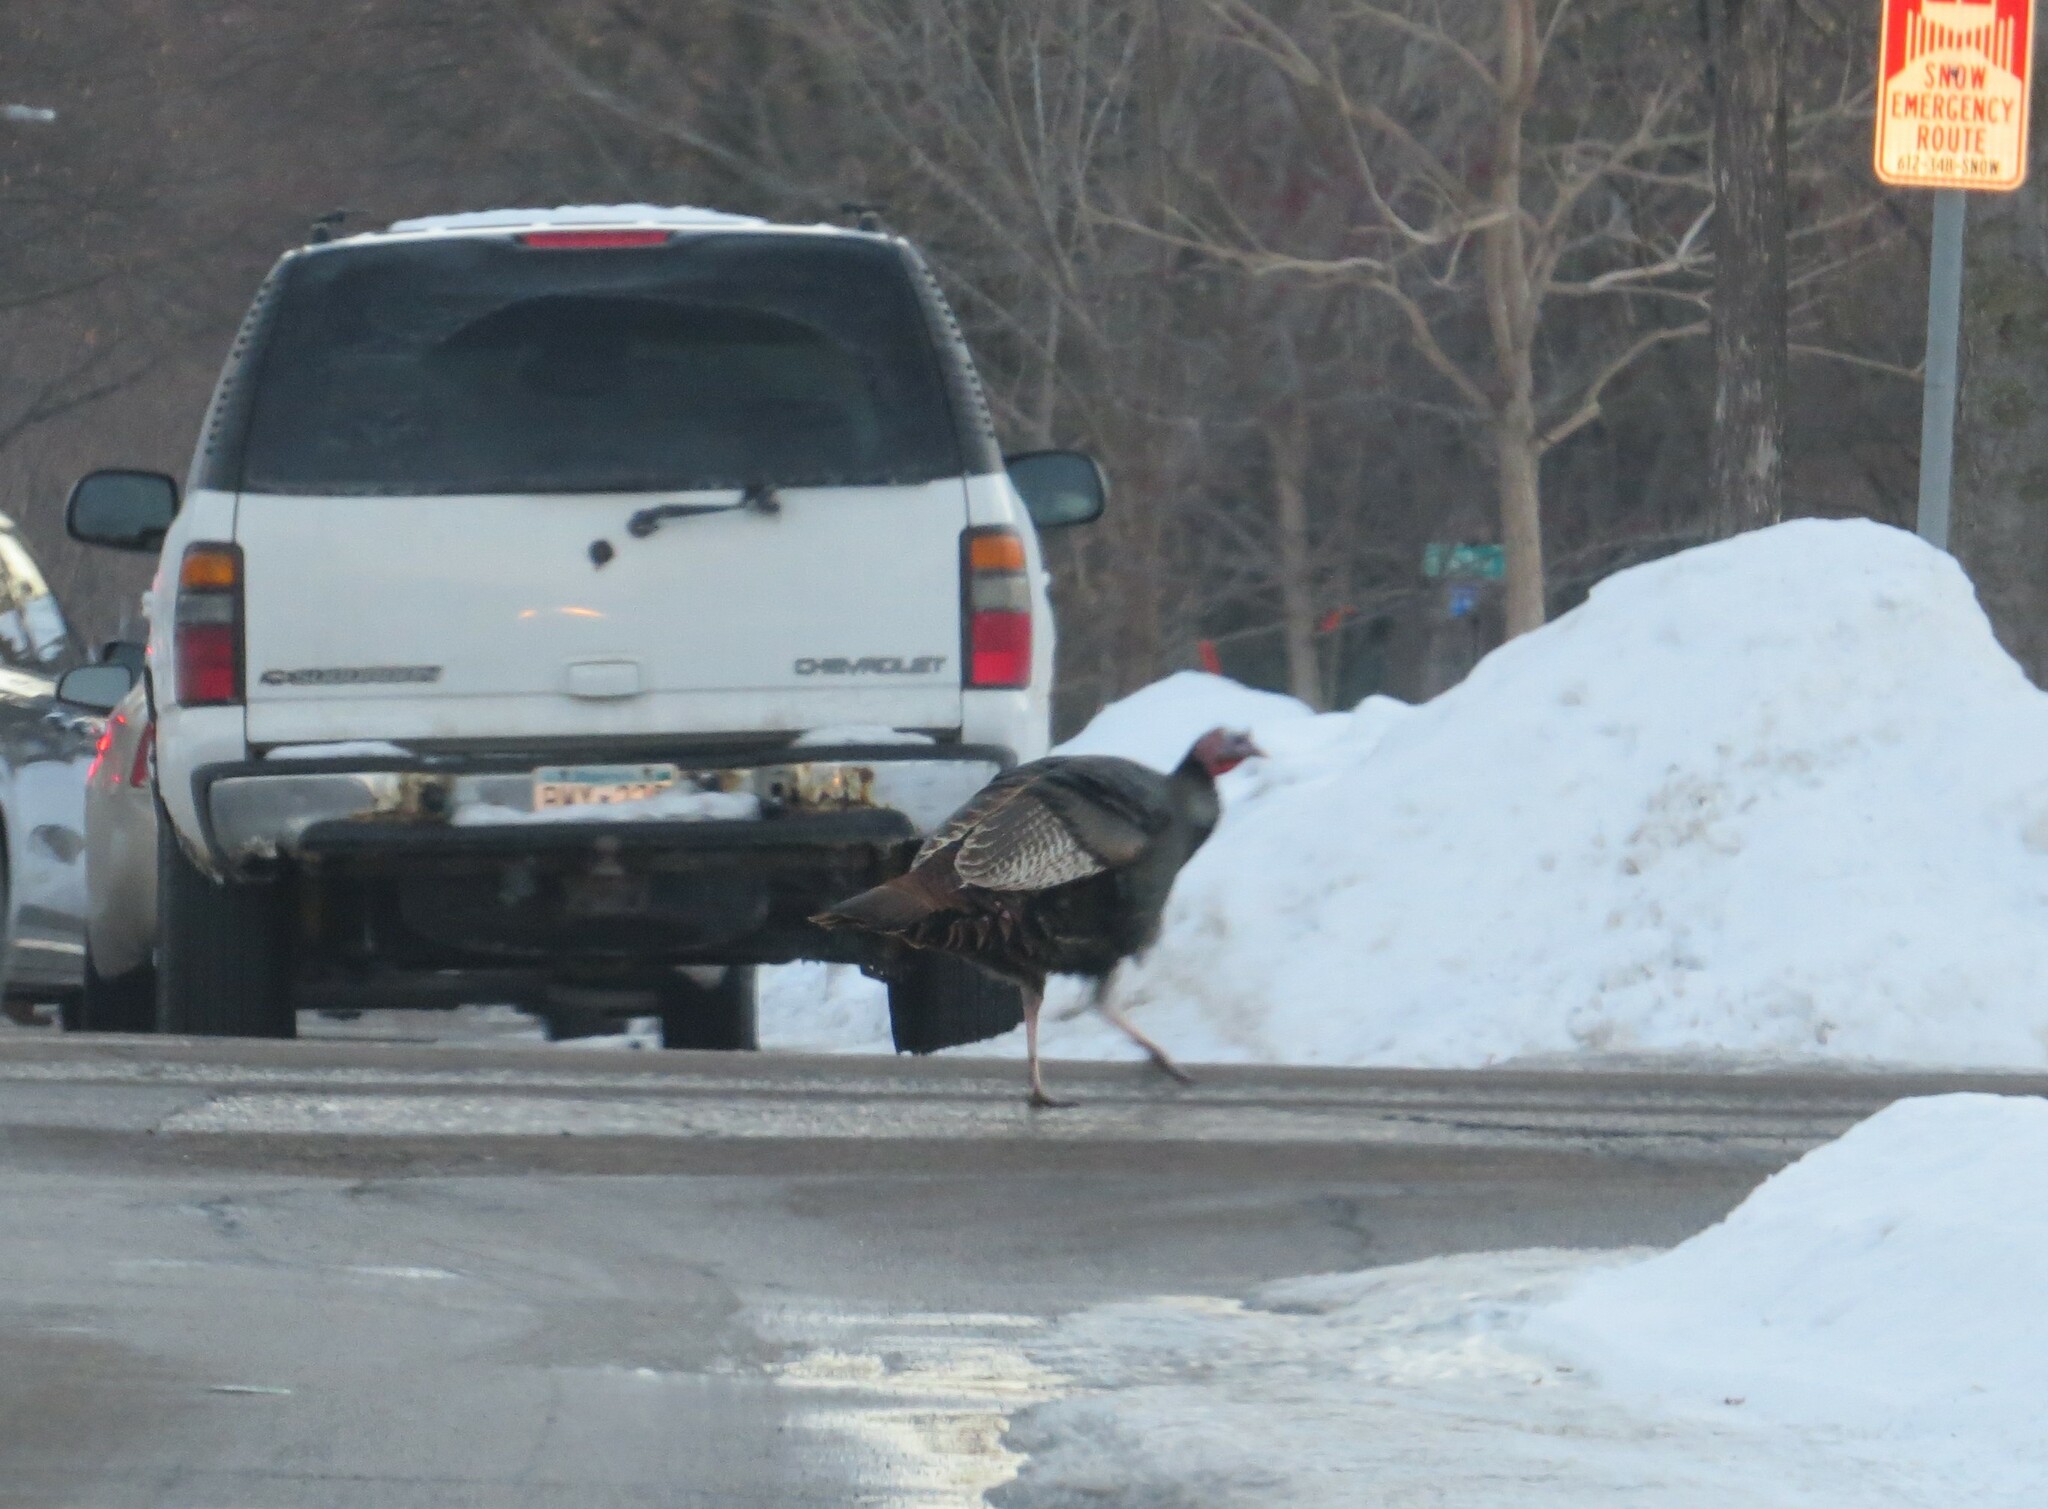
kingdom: Animalia
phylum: Chordata
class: Aves
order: Galliformes
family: Phasianidae
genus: Meleagris
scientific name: Meleagris gallopavo
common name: Wild turkey
